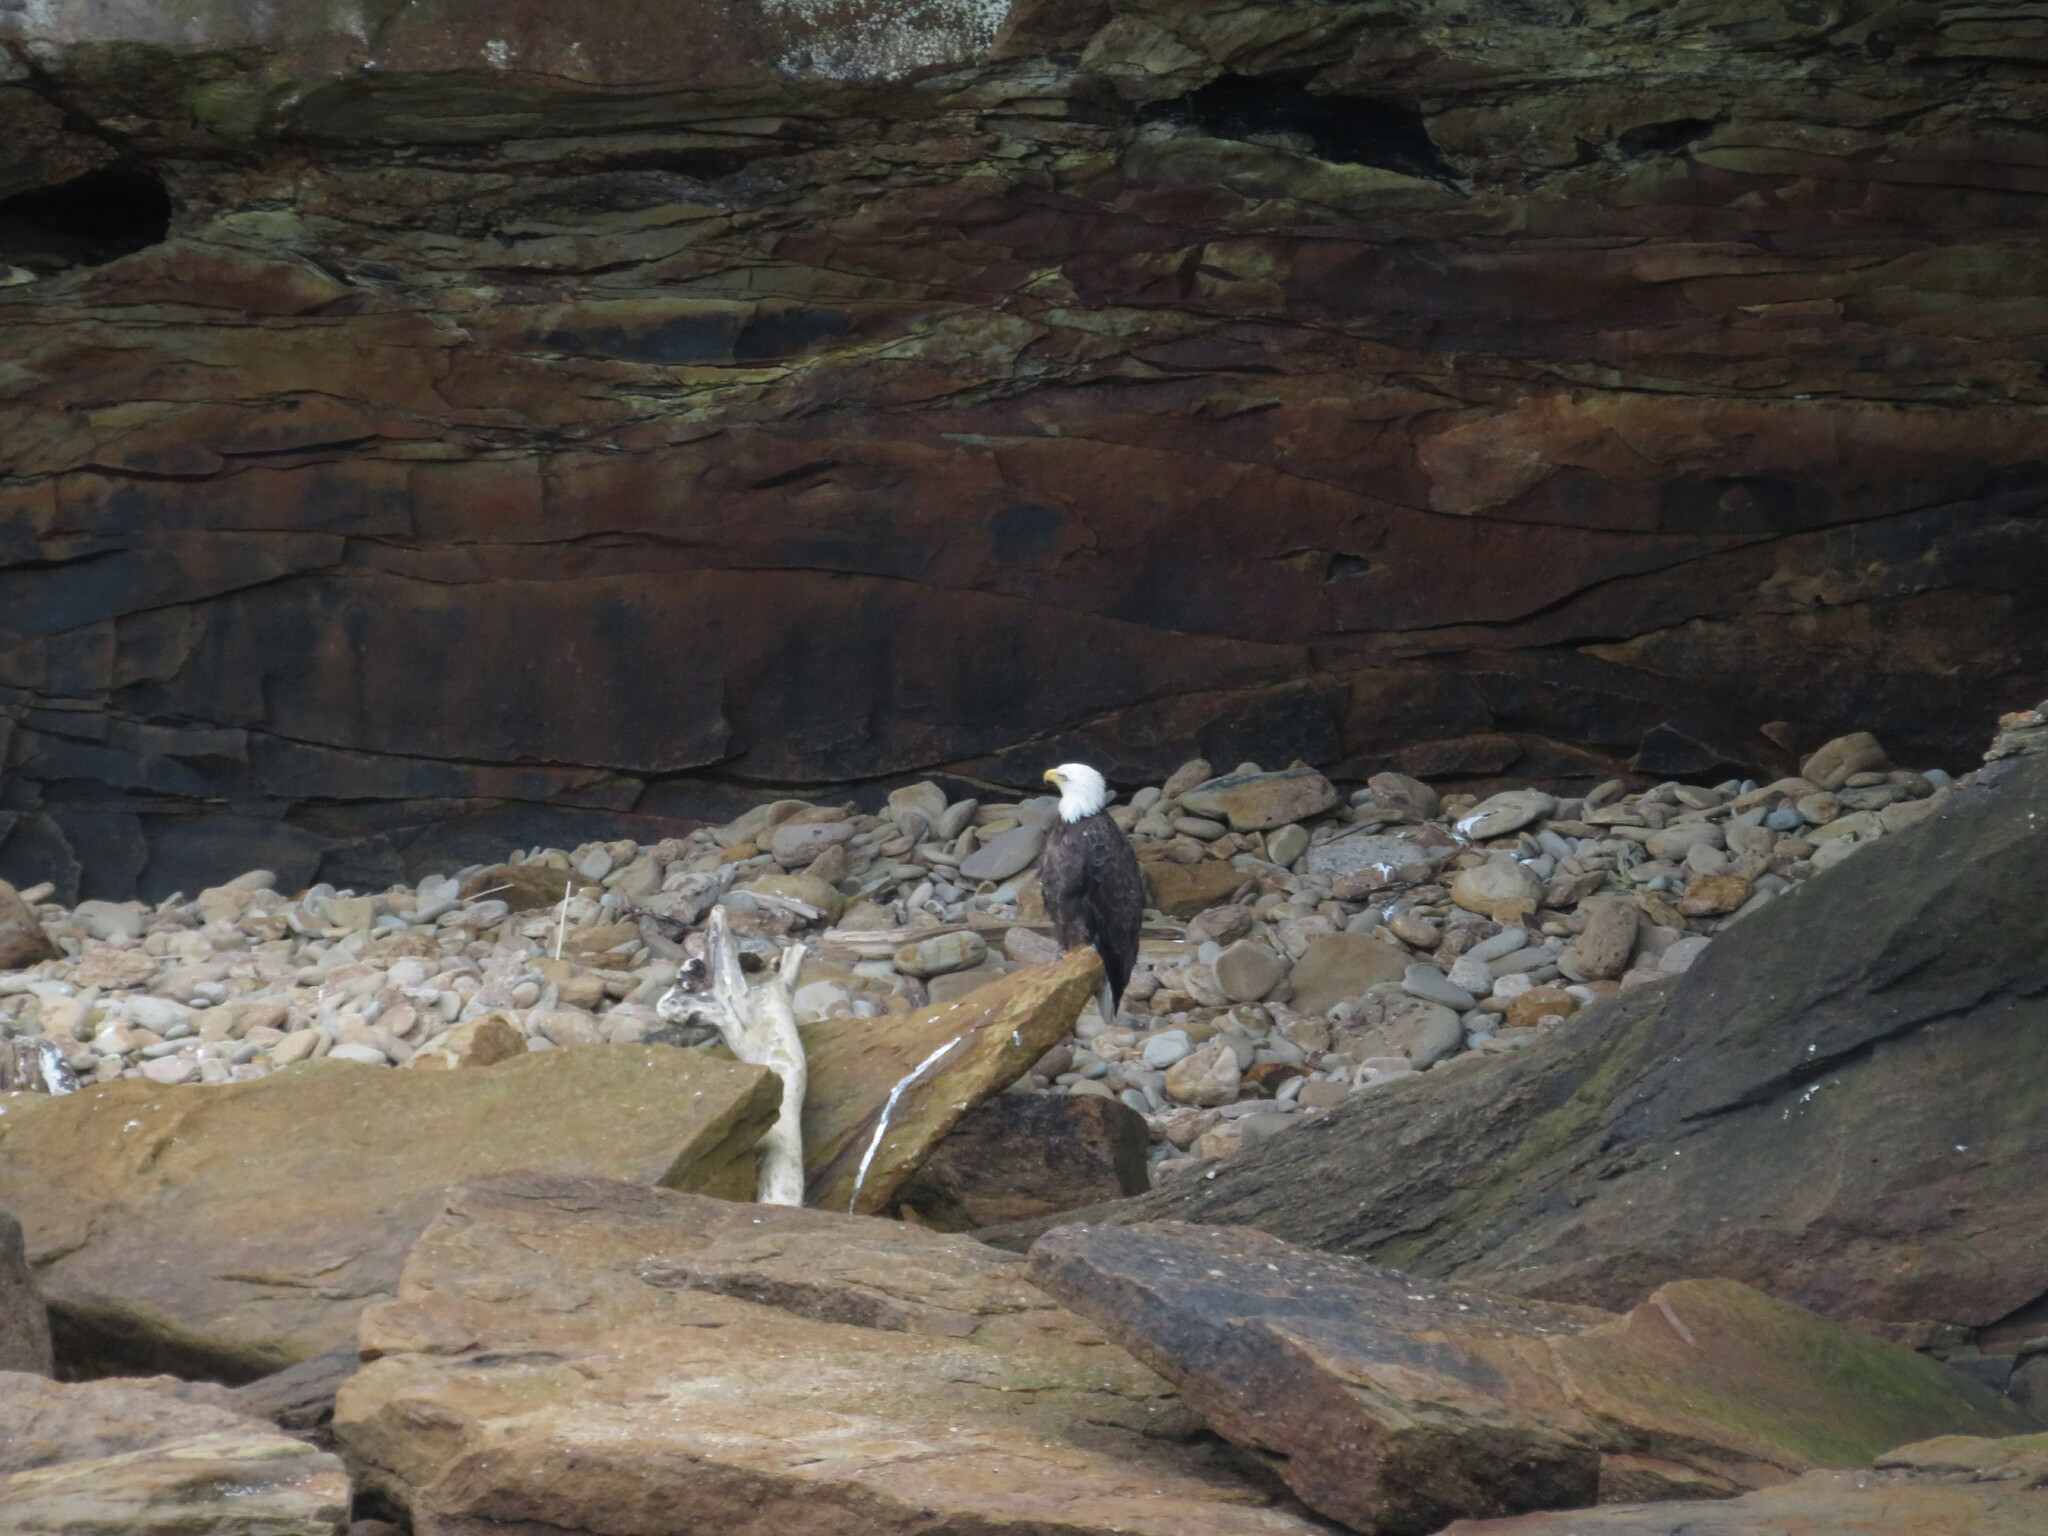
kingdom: Animalia
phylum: Chordata
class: Aves
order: Accipitriformes
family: Accipitridae
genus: Haliaeetus
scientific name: Haliaeetus leucocephalus
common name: Bald eagle
